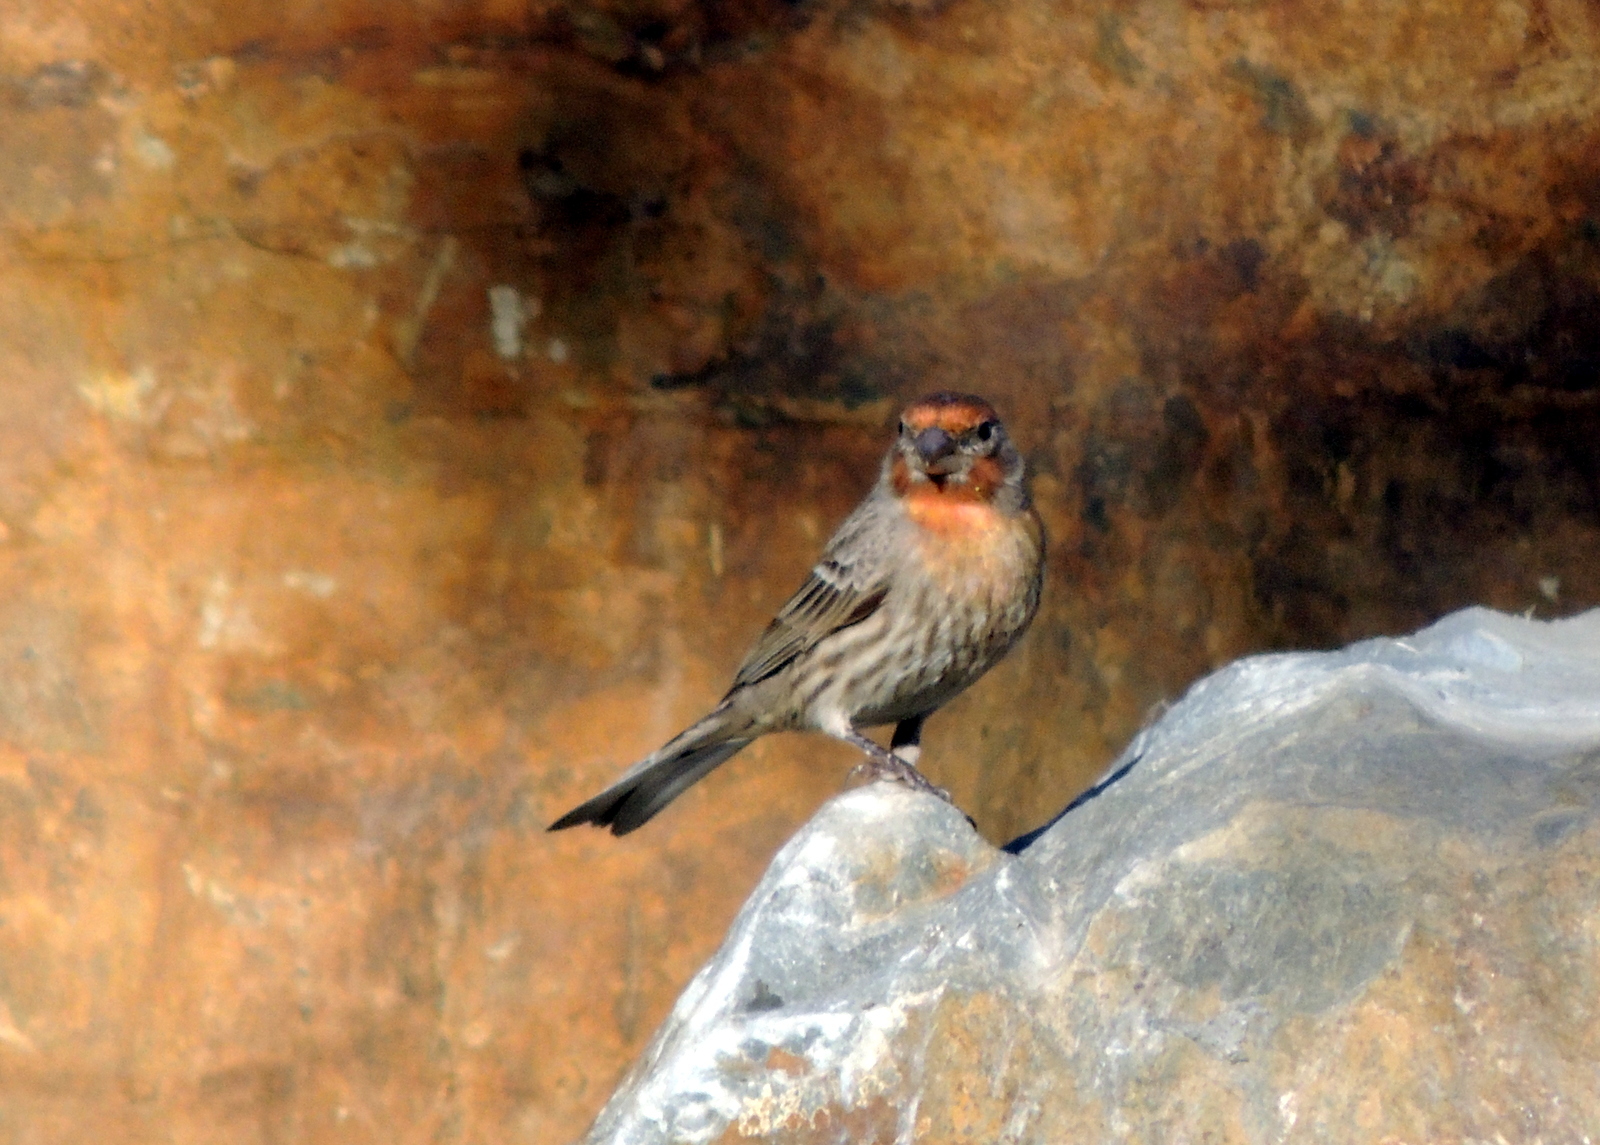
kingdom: Animalia
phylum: Chordata
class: Aves
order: Passeriformes
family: Fringillidae
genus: Haemorhous
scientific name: Haemorhous mexicanus
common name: House finch
